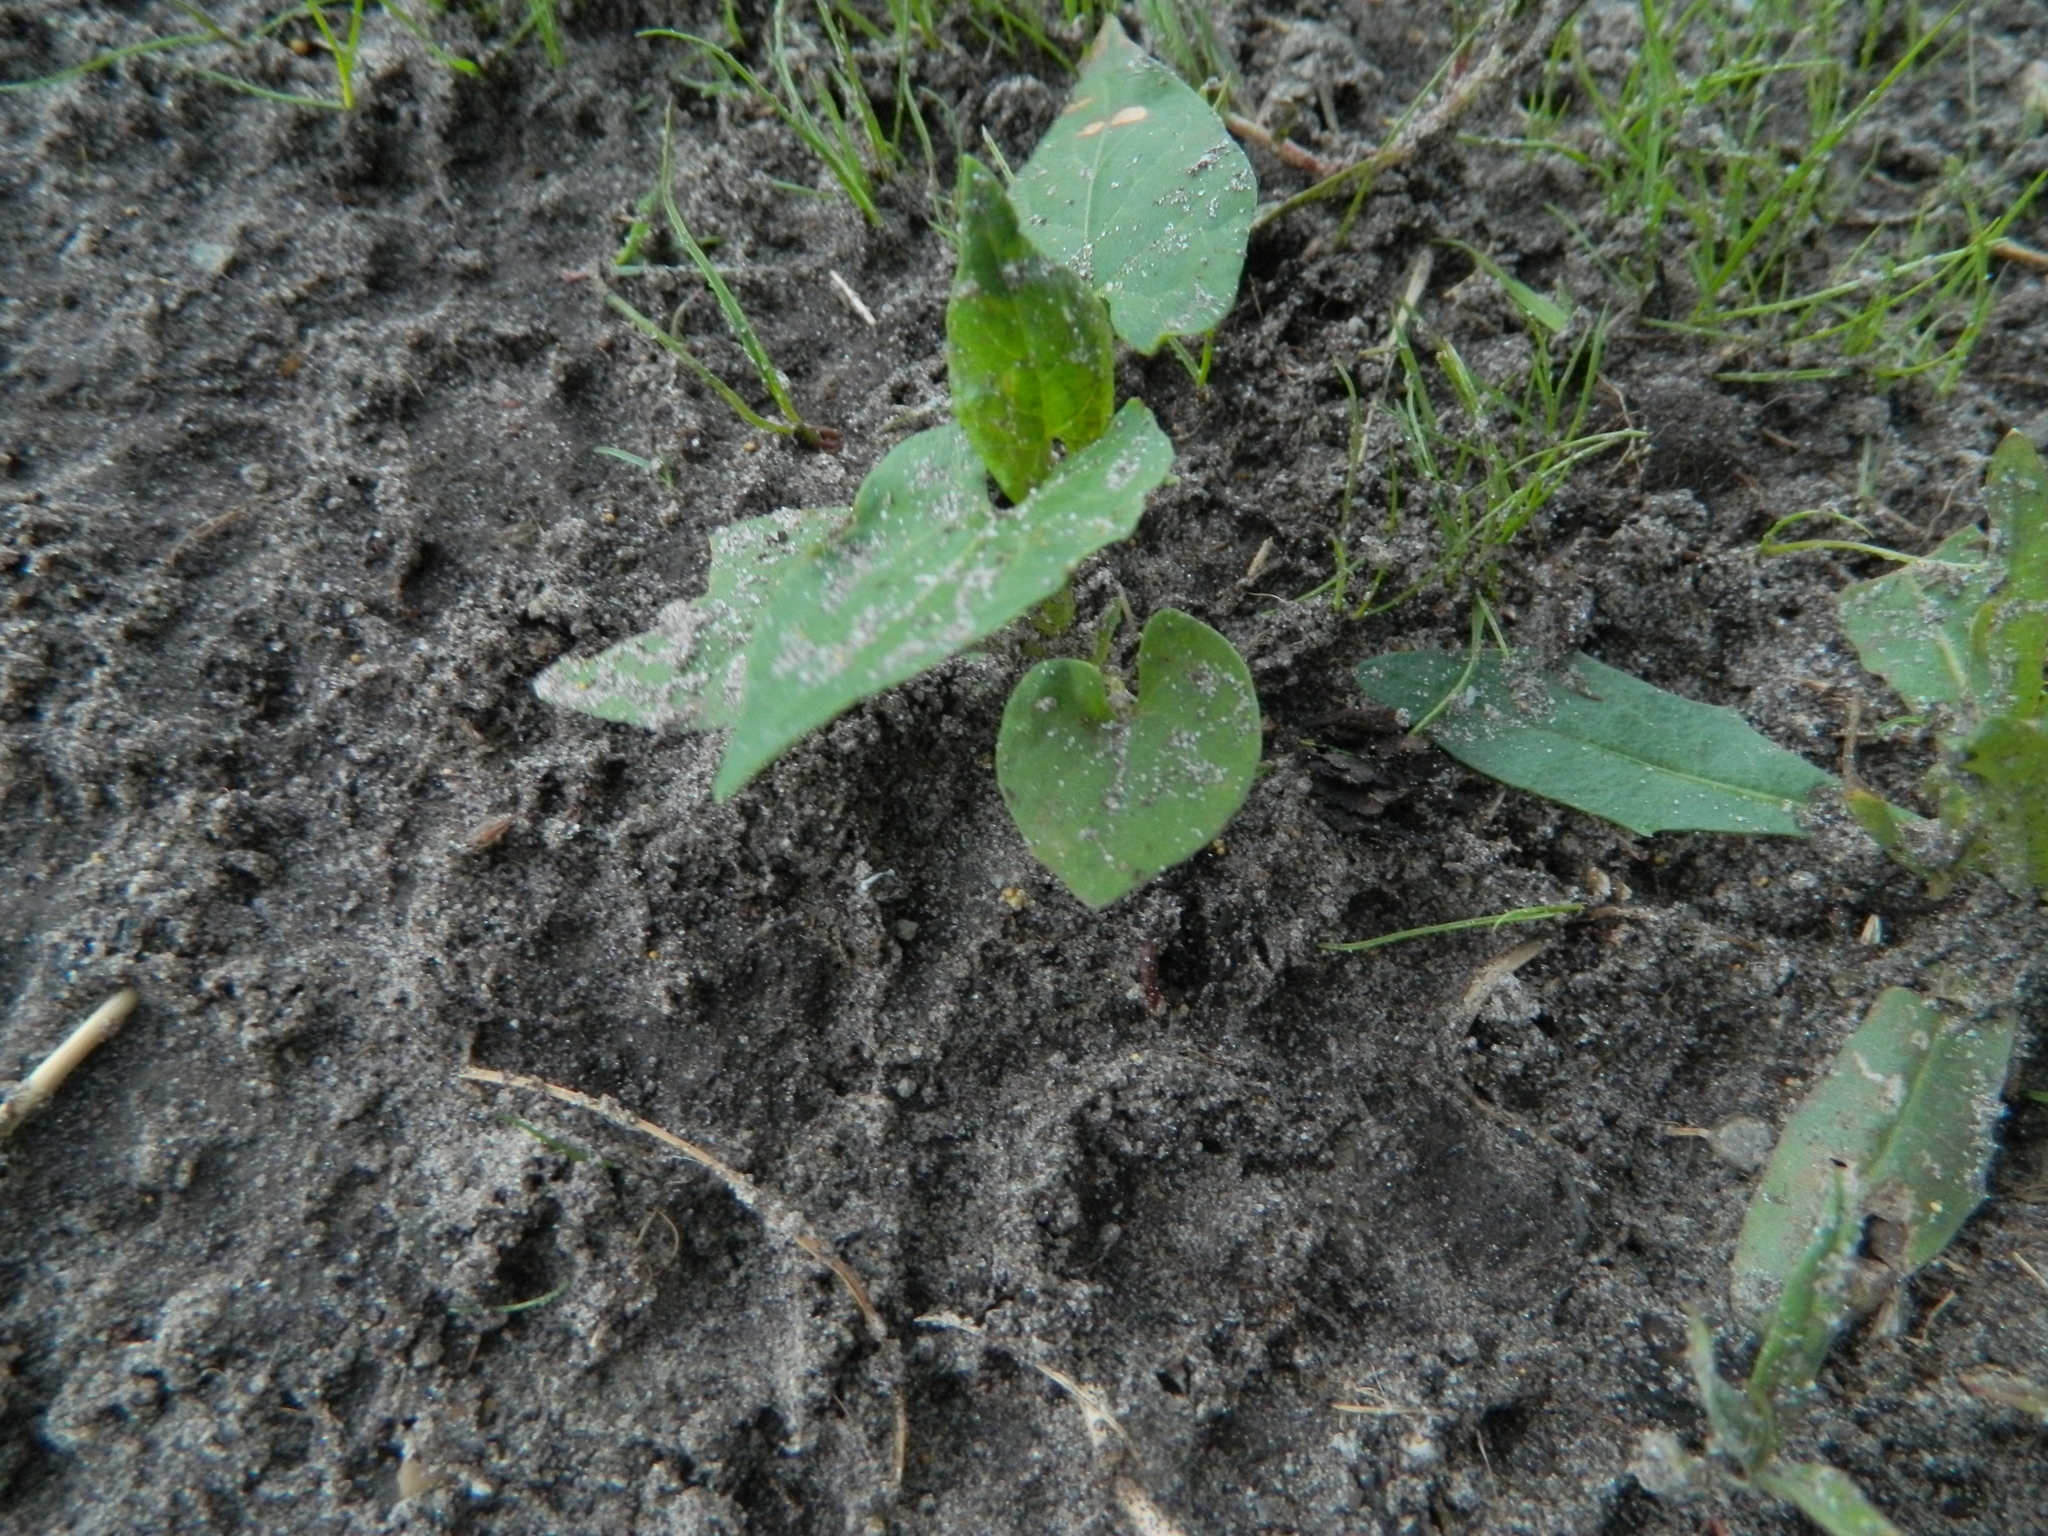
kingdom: Plantae
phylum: Tracheophyta
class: Magnoliopsida
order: Caryophyllales
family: Polygonaceae
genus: Fallopia
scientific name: Fallopia convolvulus
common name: Black bindweed
